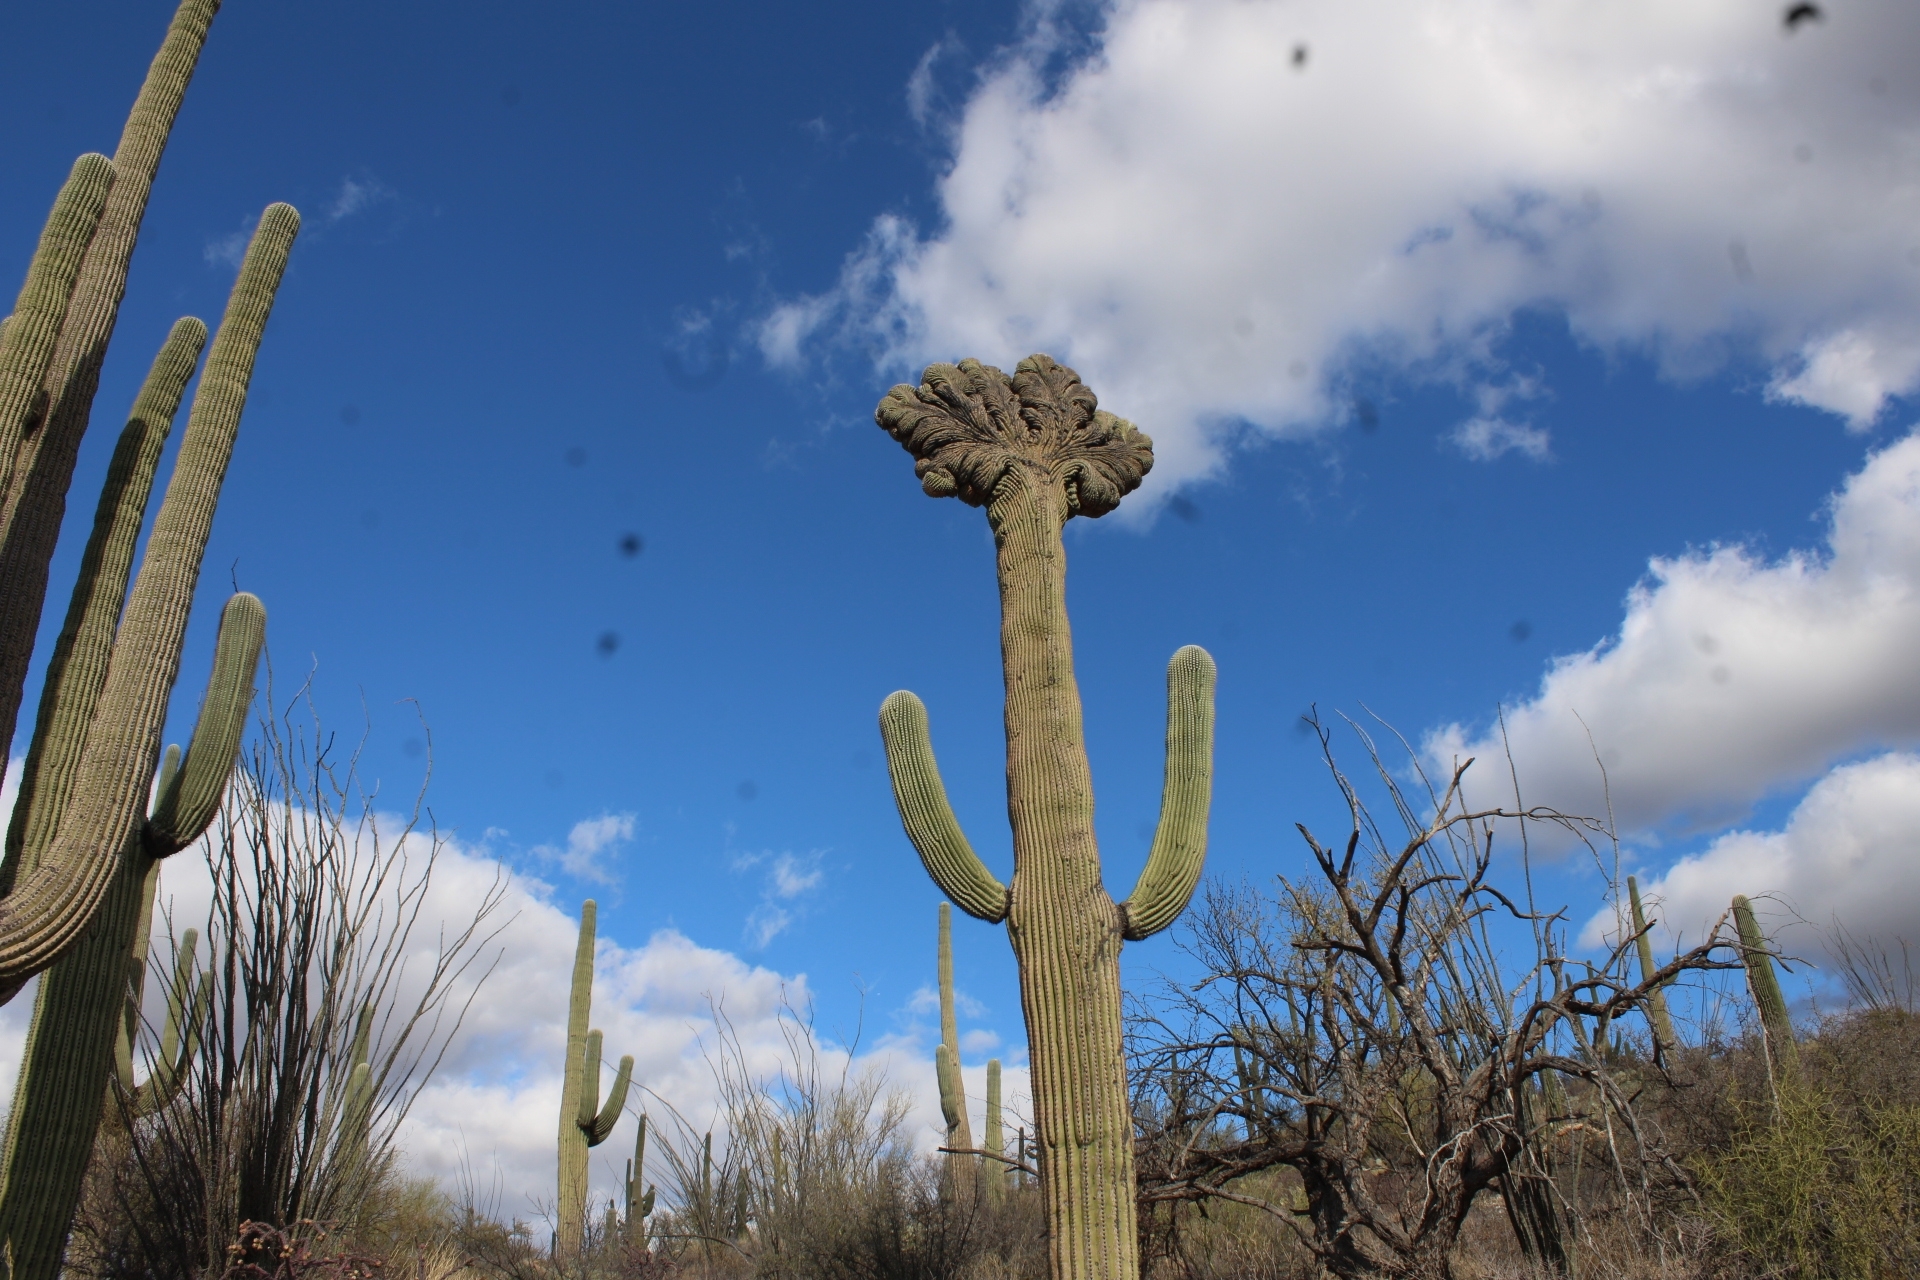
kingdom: Plantae
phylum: Tracheophyta
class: Magnoliopsida
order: Caryophyllales
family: Cactaceae
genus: Carnegiea
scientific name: Carnegiea gigantea
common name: Saguaro
